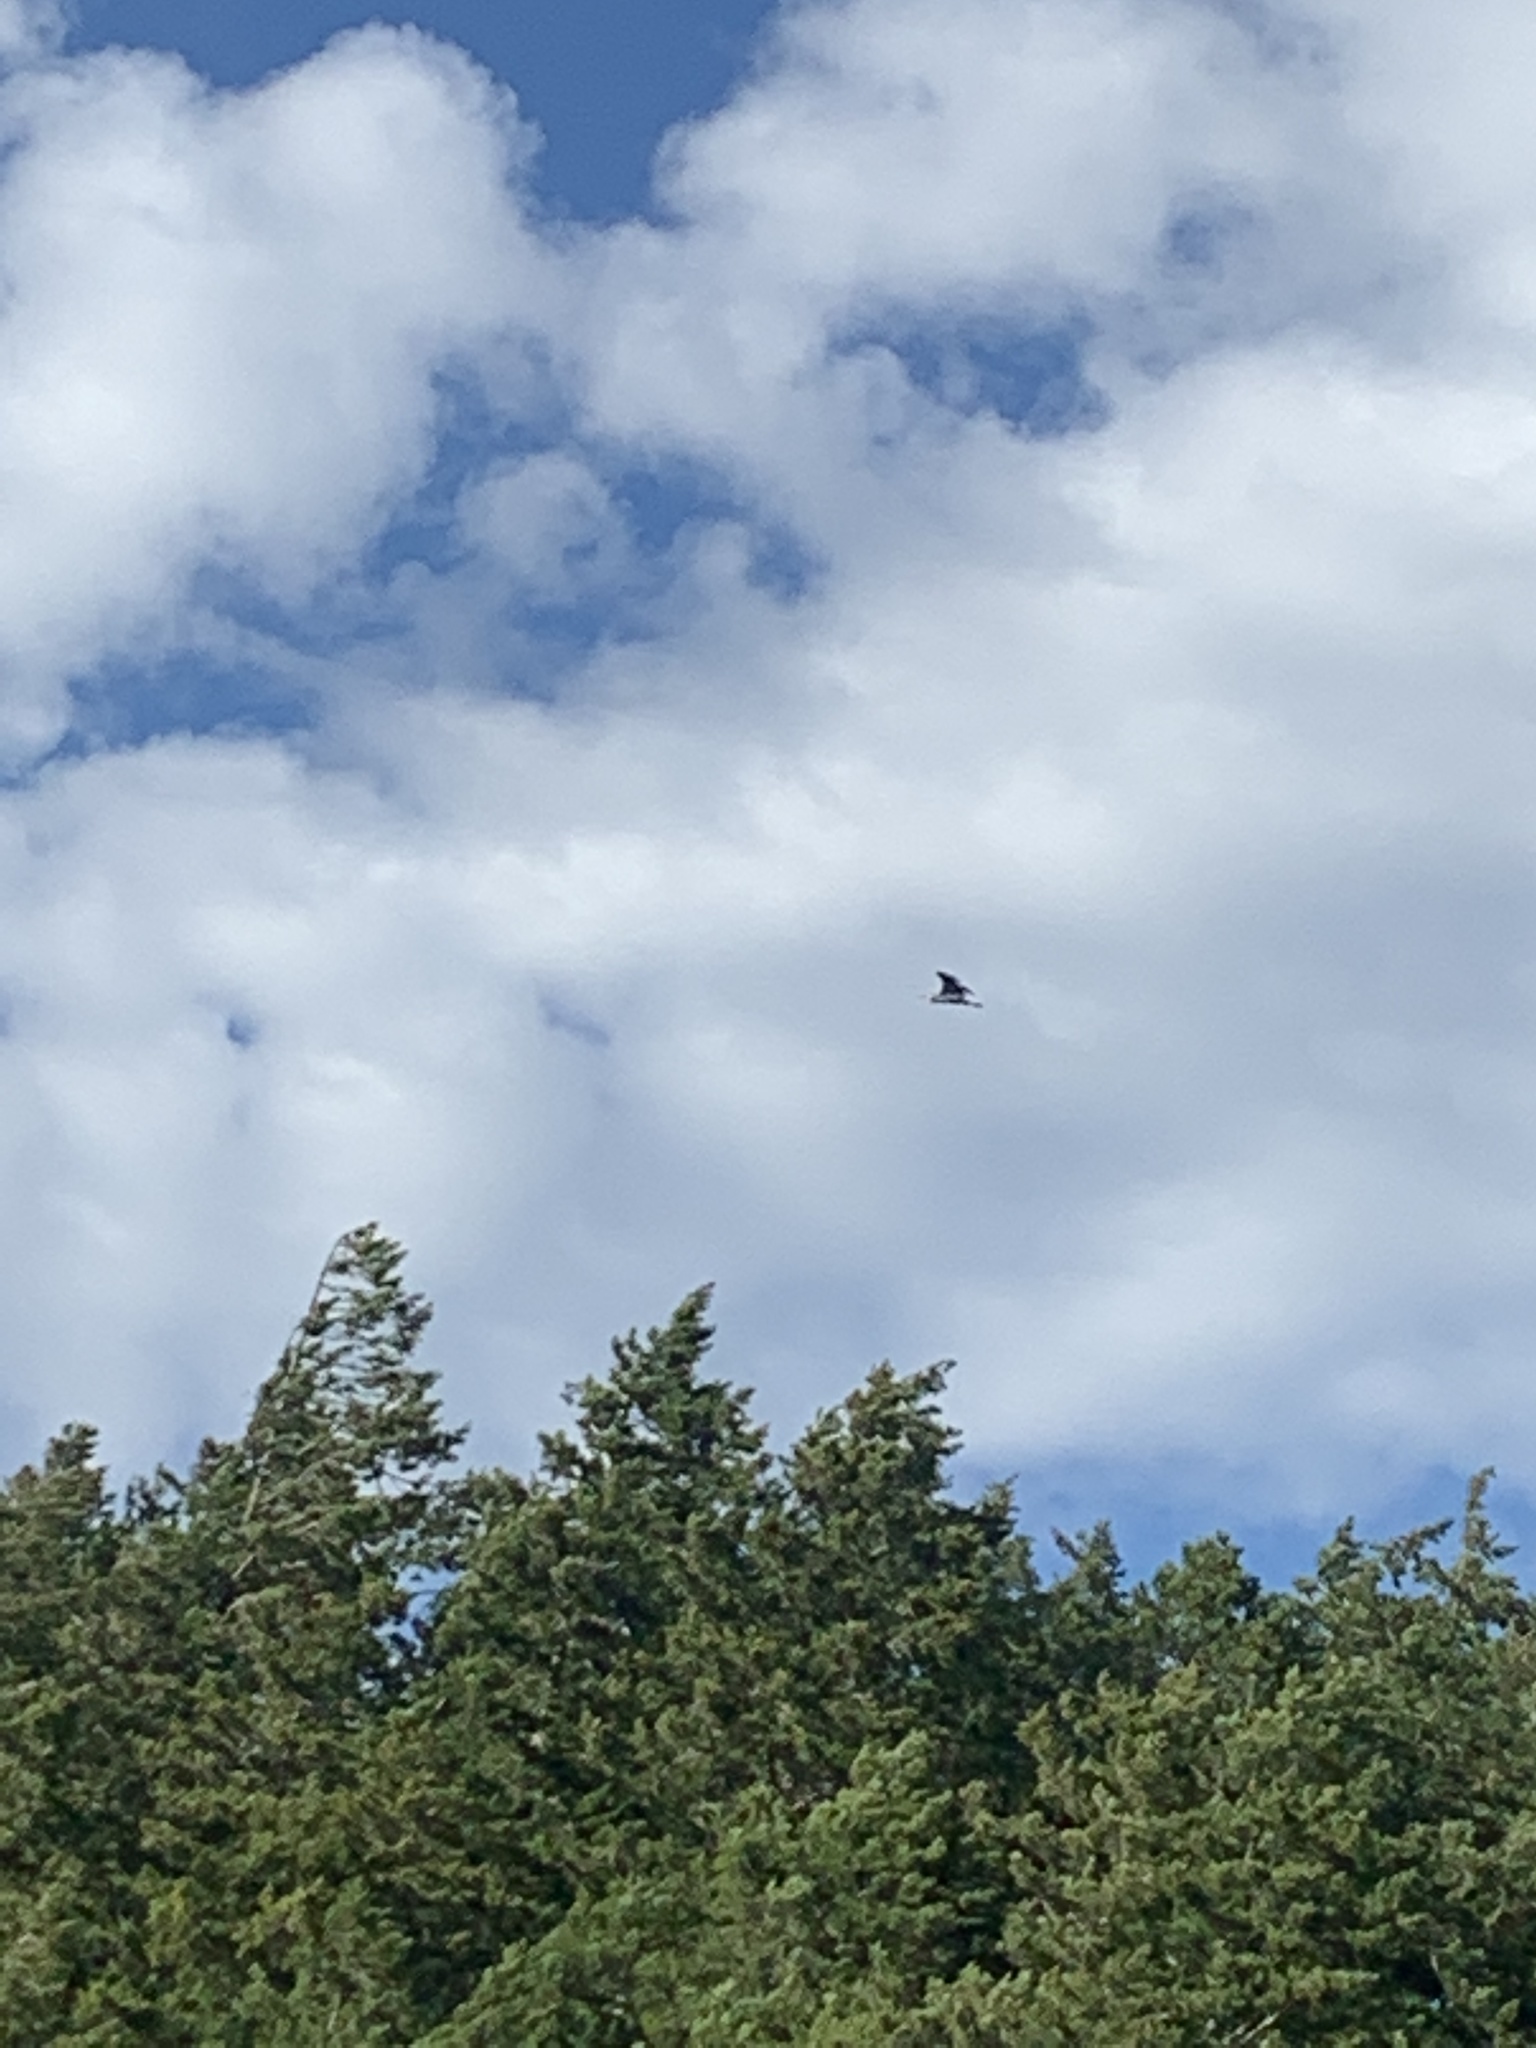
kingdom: Animalia
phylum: Chordata
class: Aves
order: Pelecaniformes
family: Ardeidae
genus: Ardea
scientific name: Ardea herodias
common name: Great blue heron
